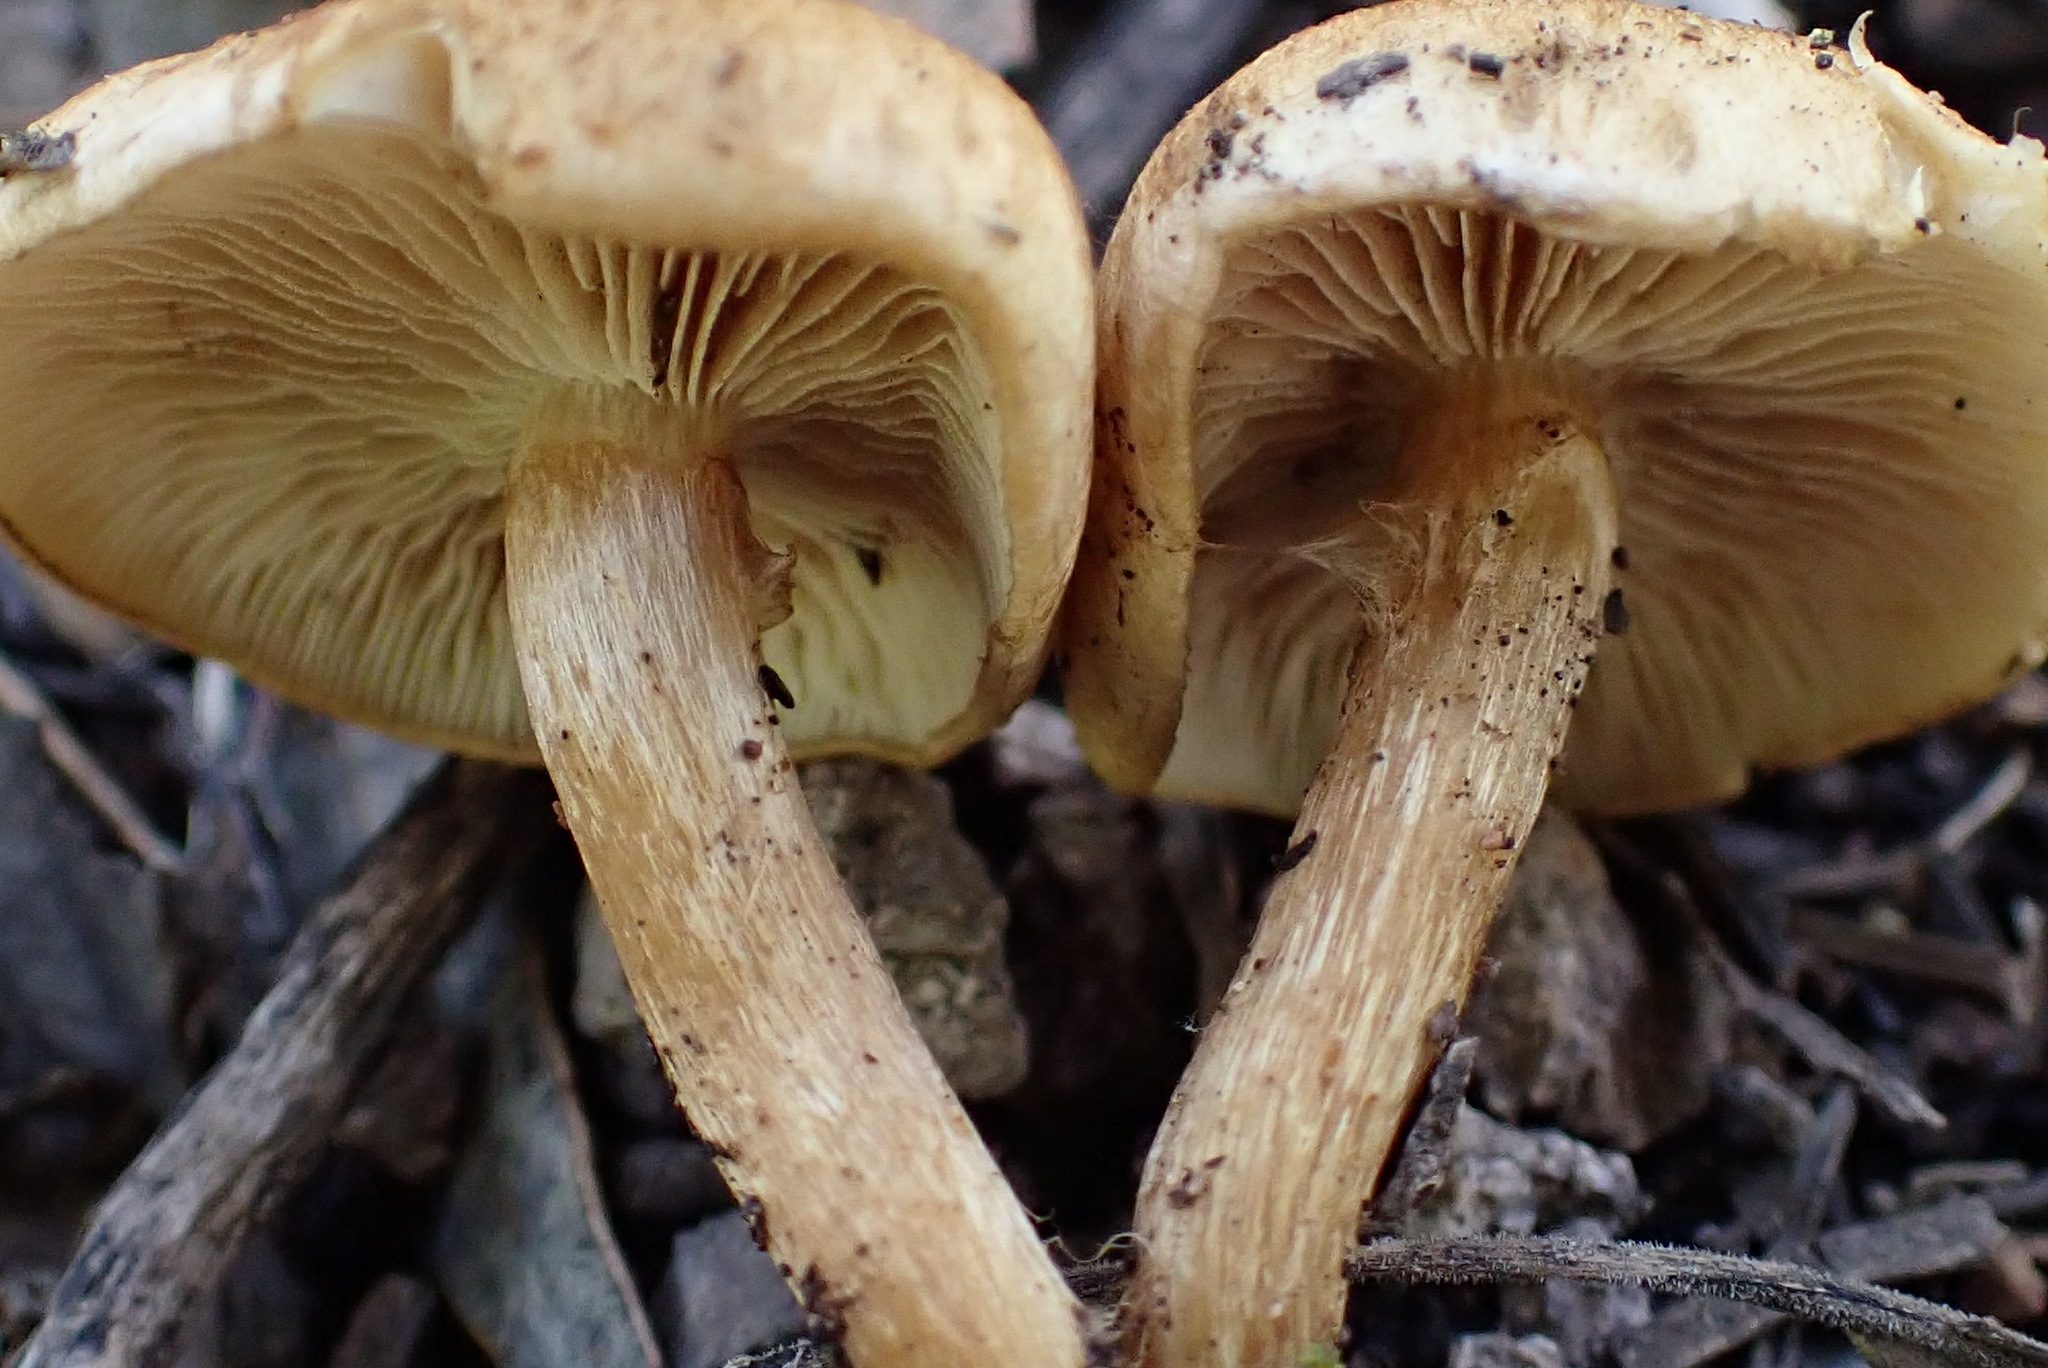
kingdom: Fungi
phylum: Basidiomycota
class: Agaricomycetes
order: Agaricales
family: Inocybaceae
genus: Mallocybe
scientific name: Mallocybe
